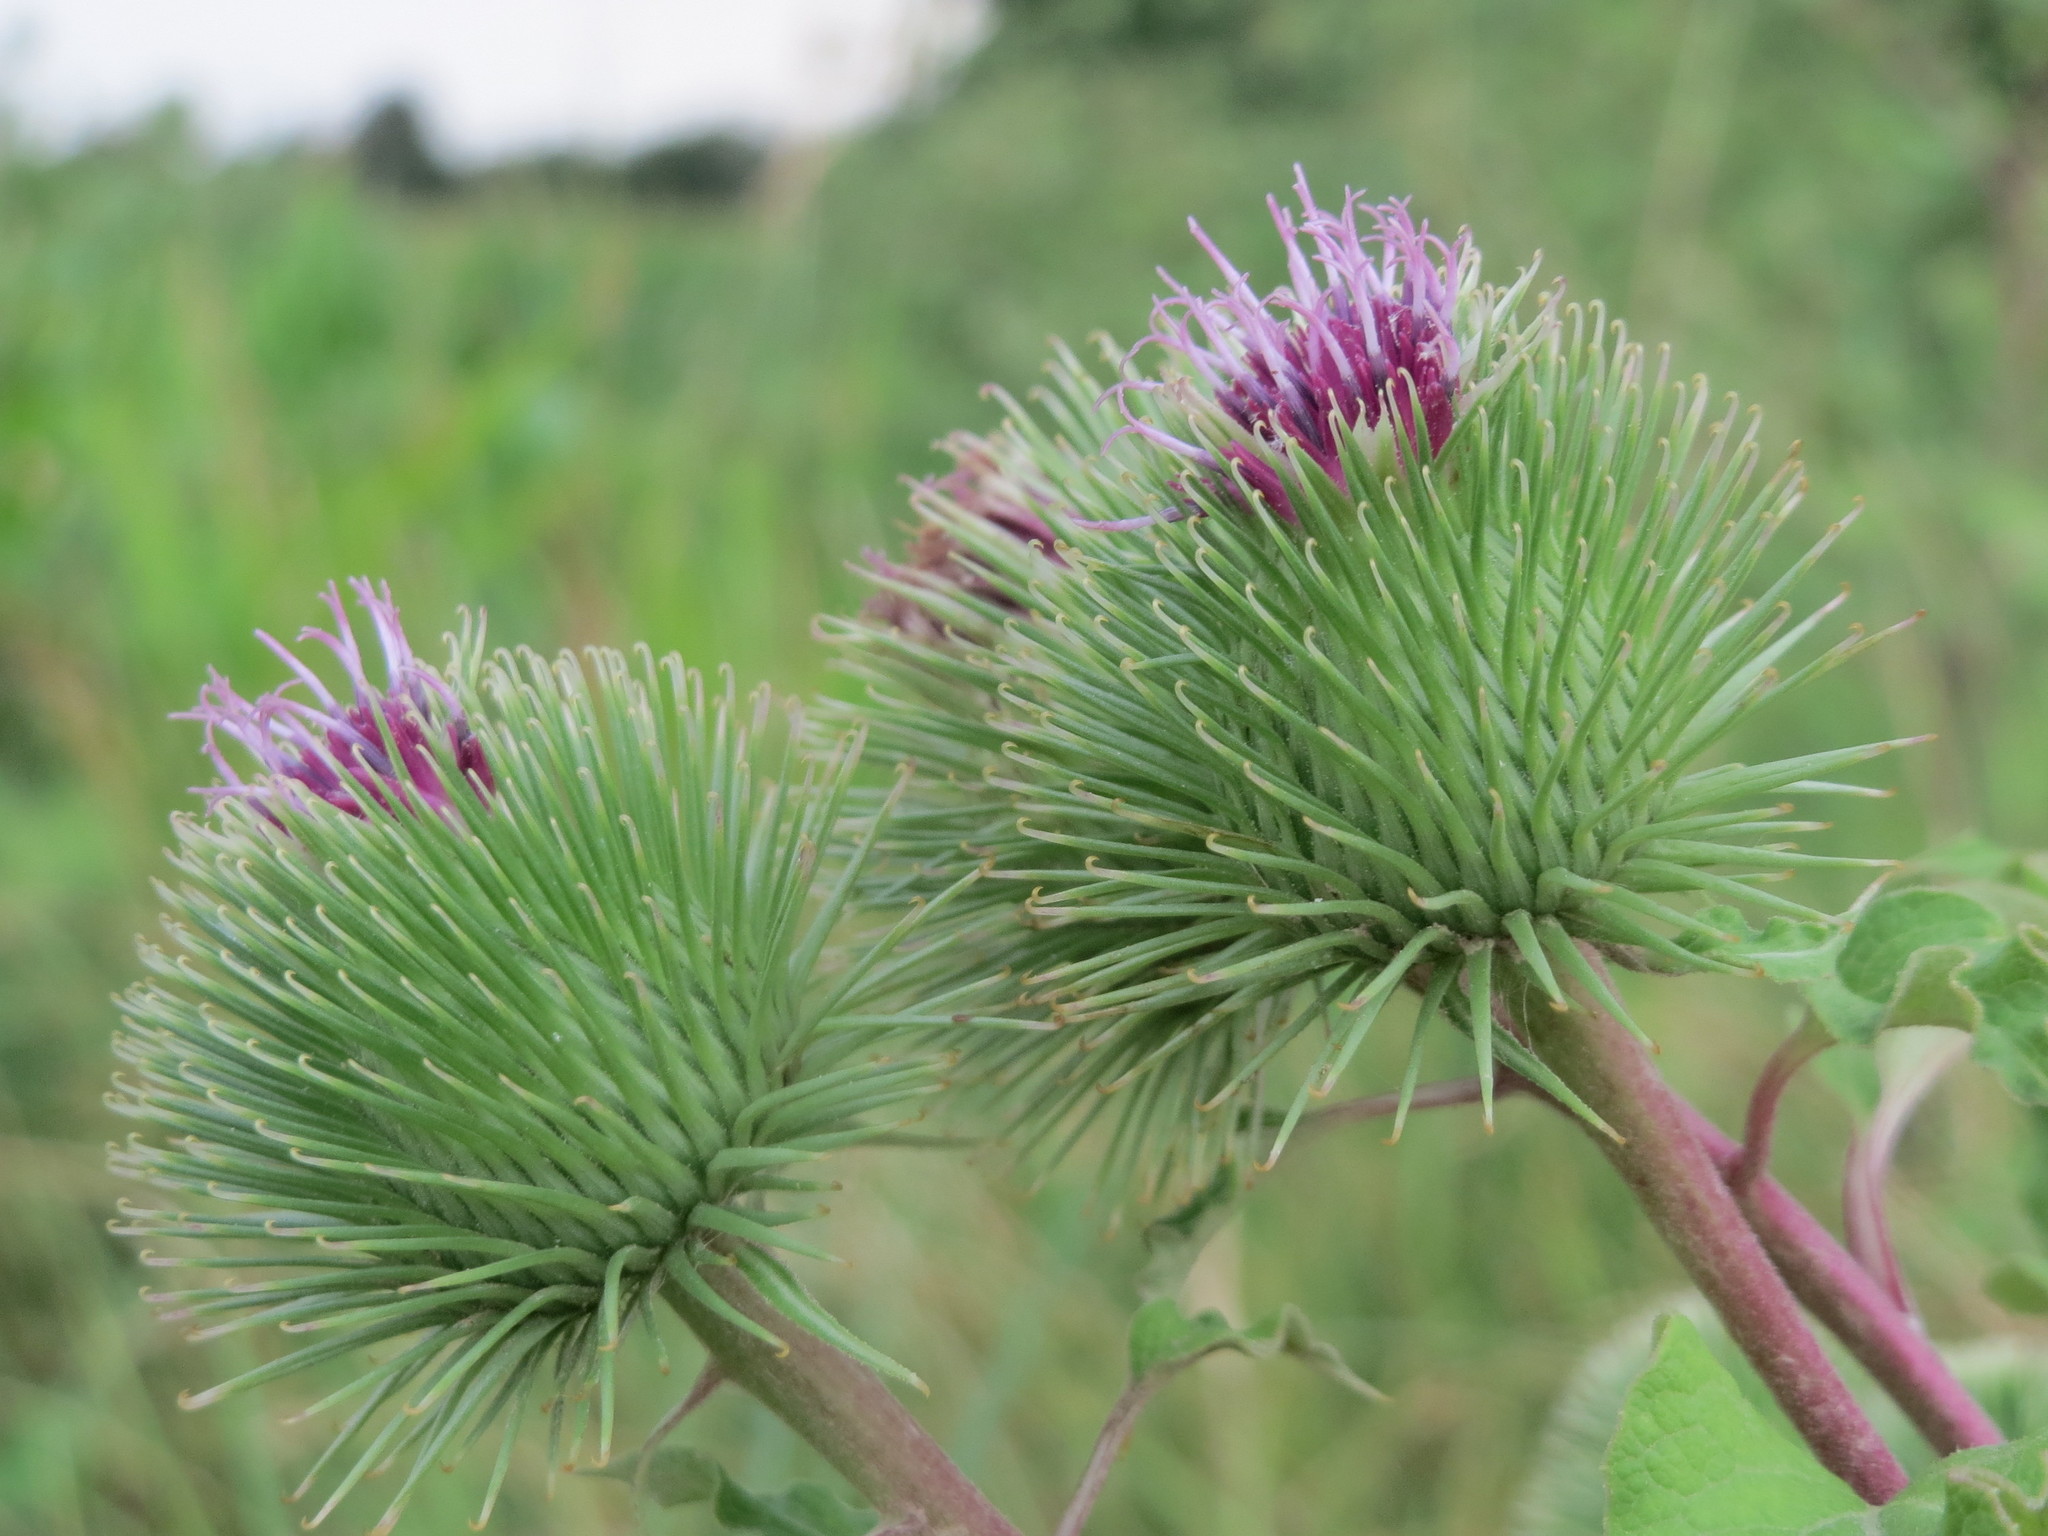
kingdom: Plantae
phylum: Tracheophyta
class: Magnoliopsida
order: Asterales
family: Asteraceae
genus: Arctium
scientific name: Arctium lappa
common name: Greater burdock
